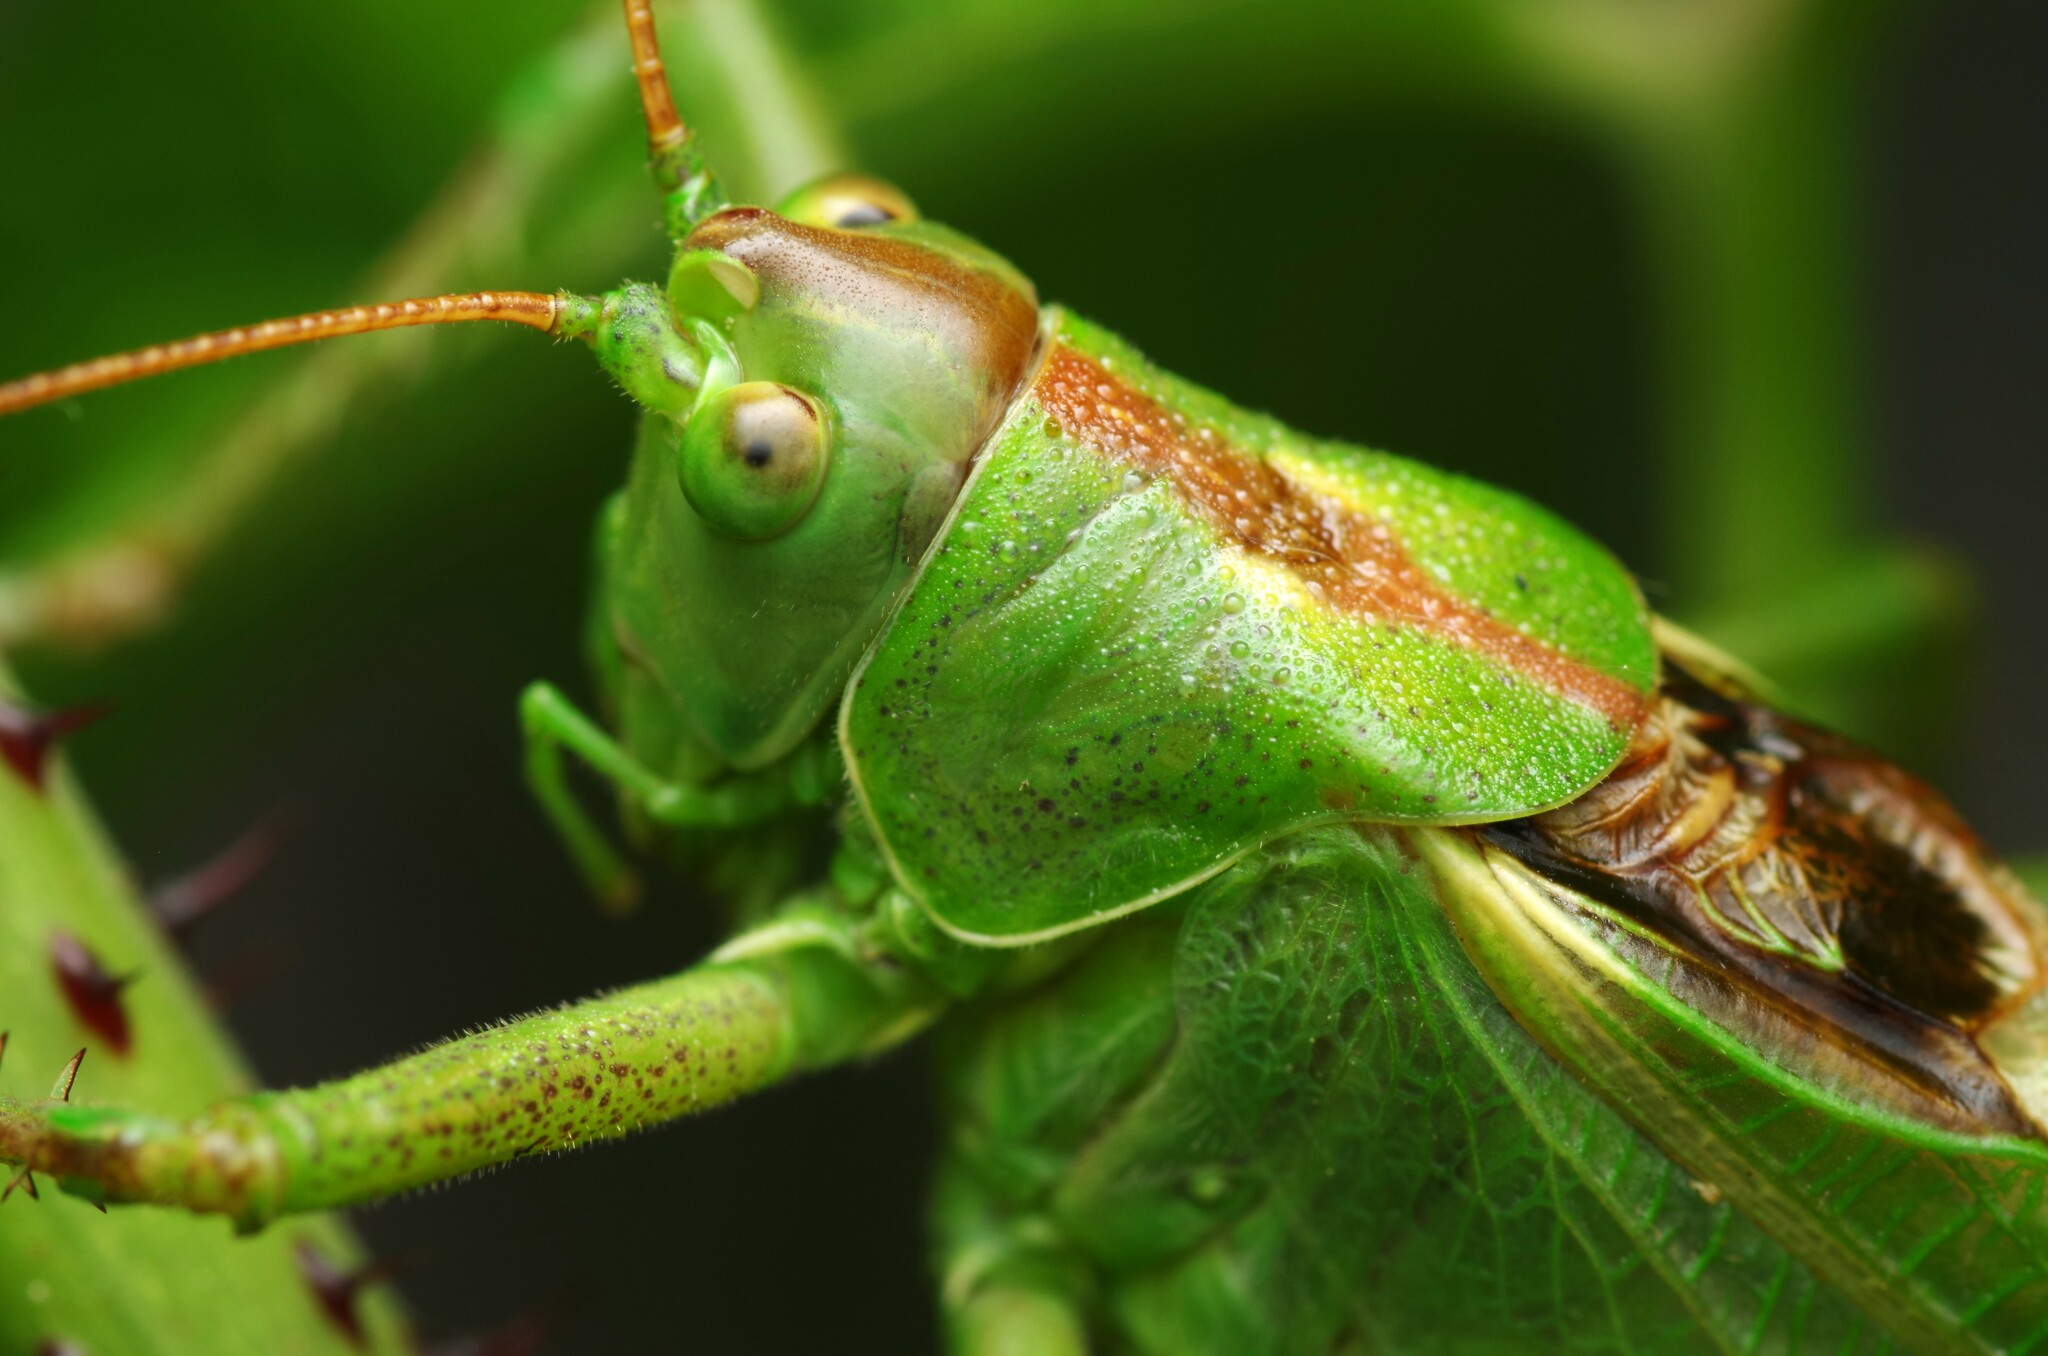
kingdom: Animalia
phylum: Arthropoda
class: Insecta
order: Orthoptera
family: Tettigoniidae
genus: Tettigonia
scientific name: Tettigonia viridissima
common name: Great green bush-cricket
